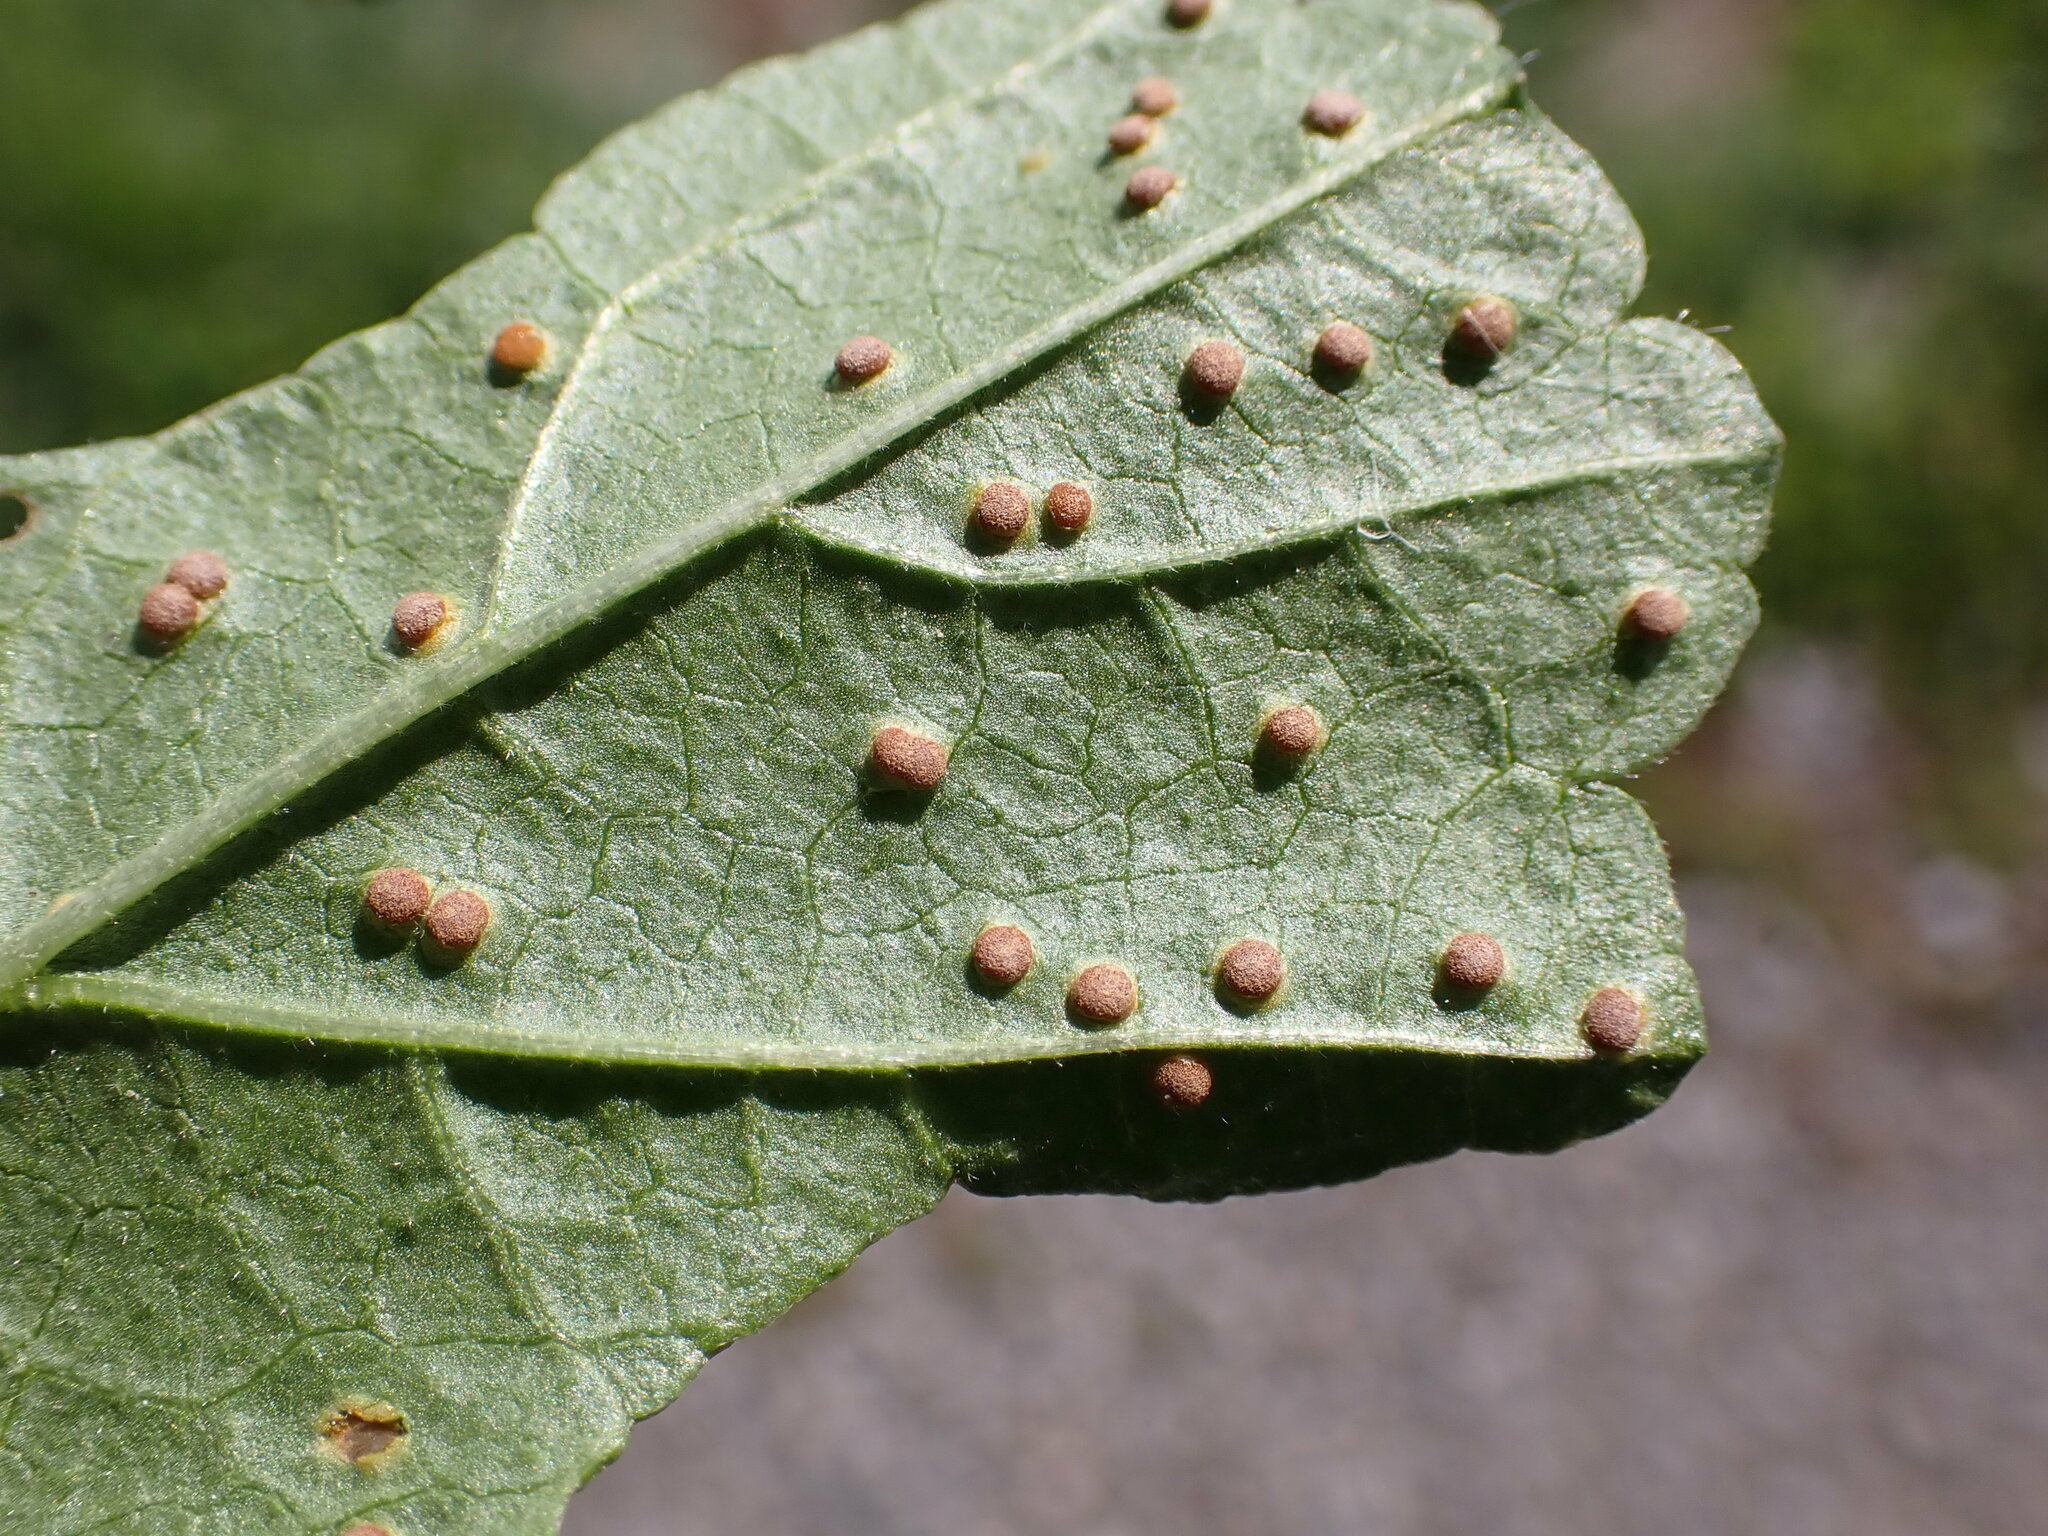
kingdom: Fungi
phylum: Basidiomycota
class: Pucciniomycetes
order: Pucciniales
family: Pucciniaceae
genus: Puccinia
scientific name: Puccinia malvacearum
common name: Hollyhock rust
